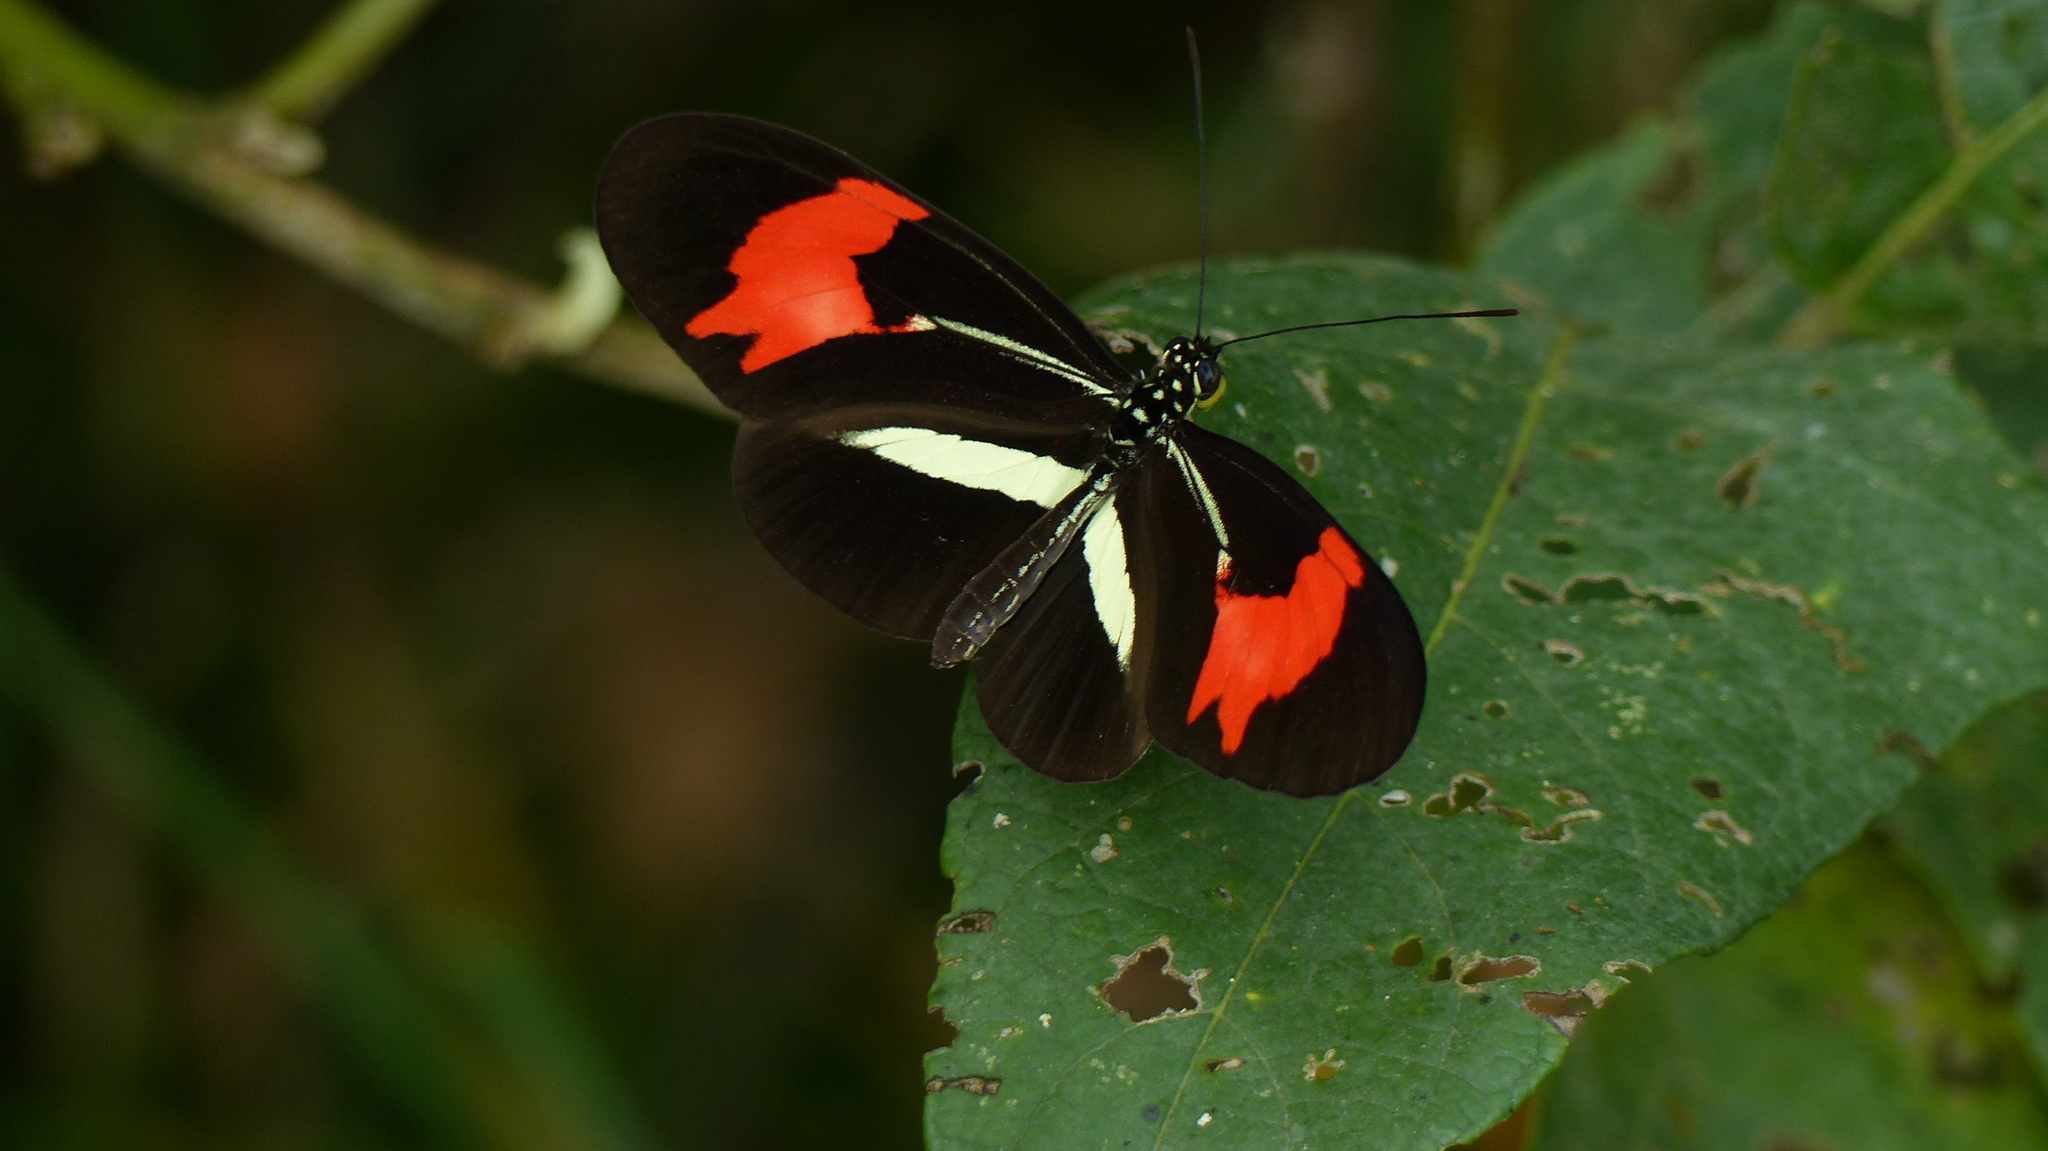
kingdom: Animalia
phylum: Arthropoda
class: Insecta
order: Lepidoptera
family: Nymphalidae
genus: Heliconius
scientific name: Heliconius erato
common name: Common patch longwing
